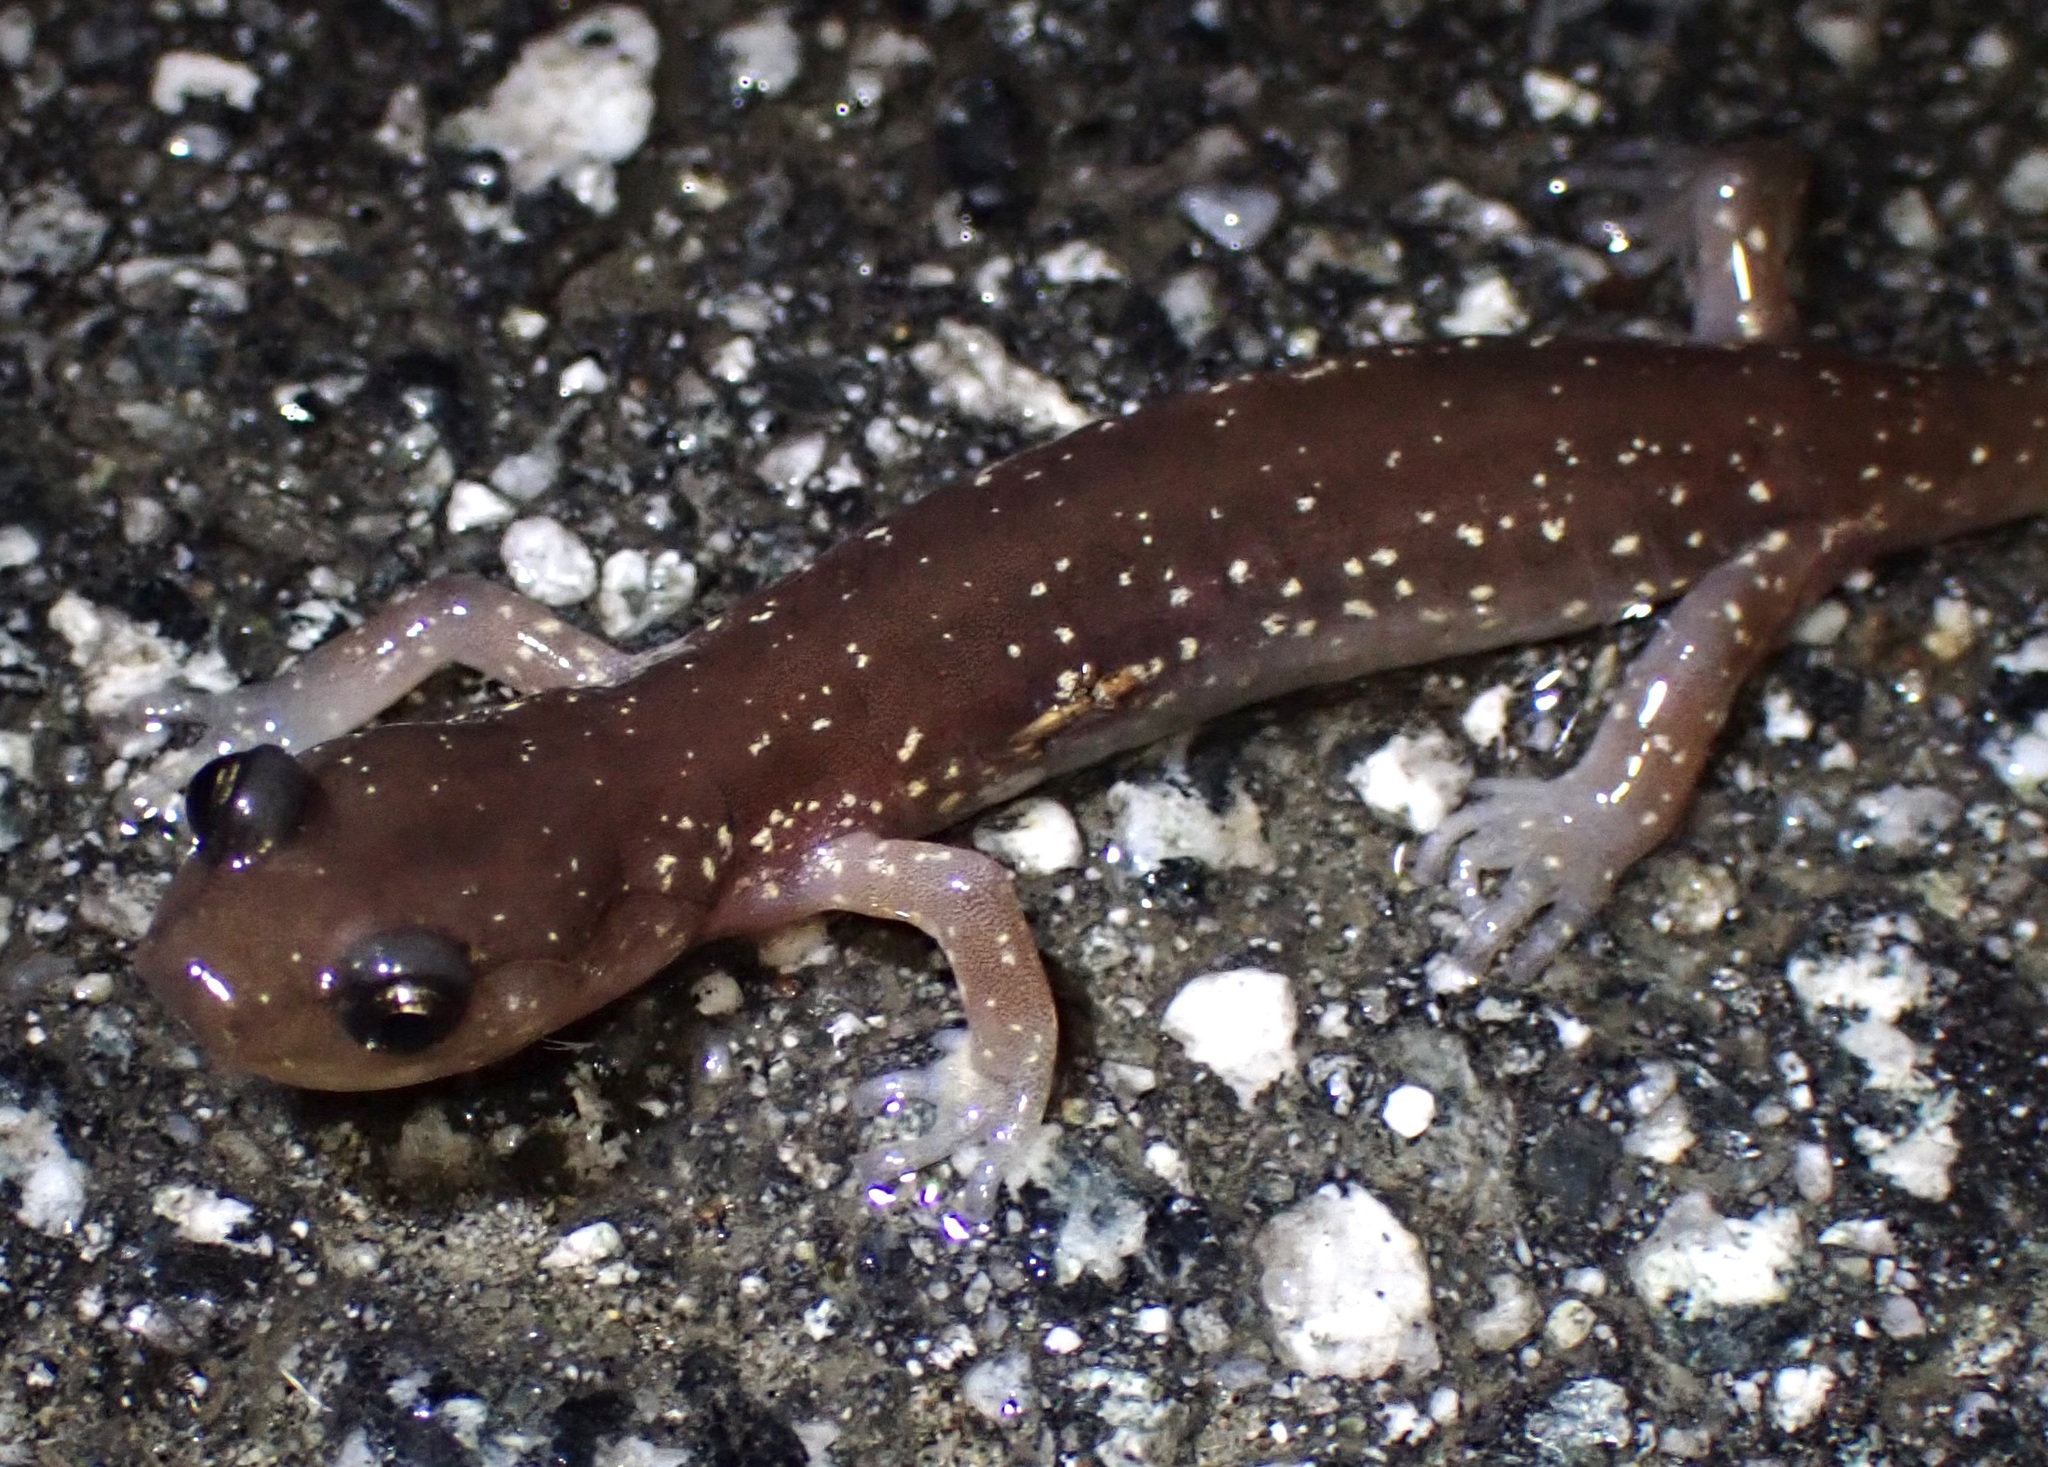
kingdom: Animalia
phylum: Chordata
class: Amphibia
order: Caudata
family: Plethodontidae
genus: Aneides
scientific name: Aneides lugubris
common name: Arboreal salamander
